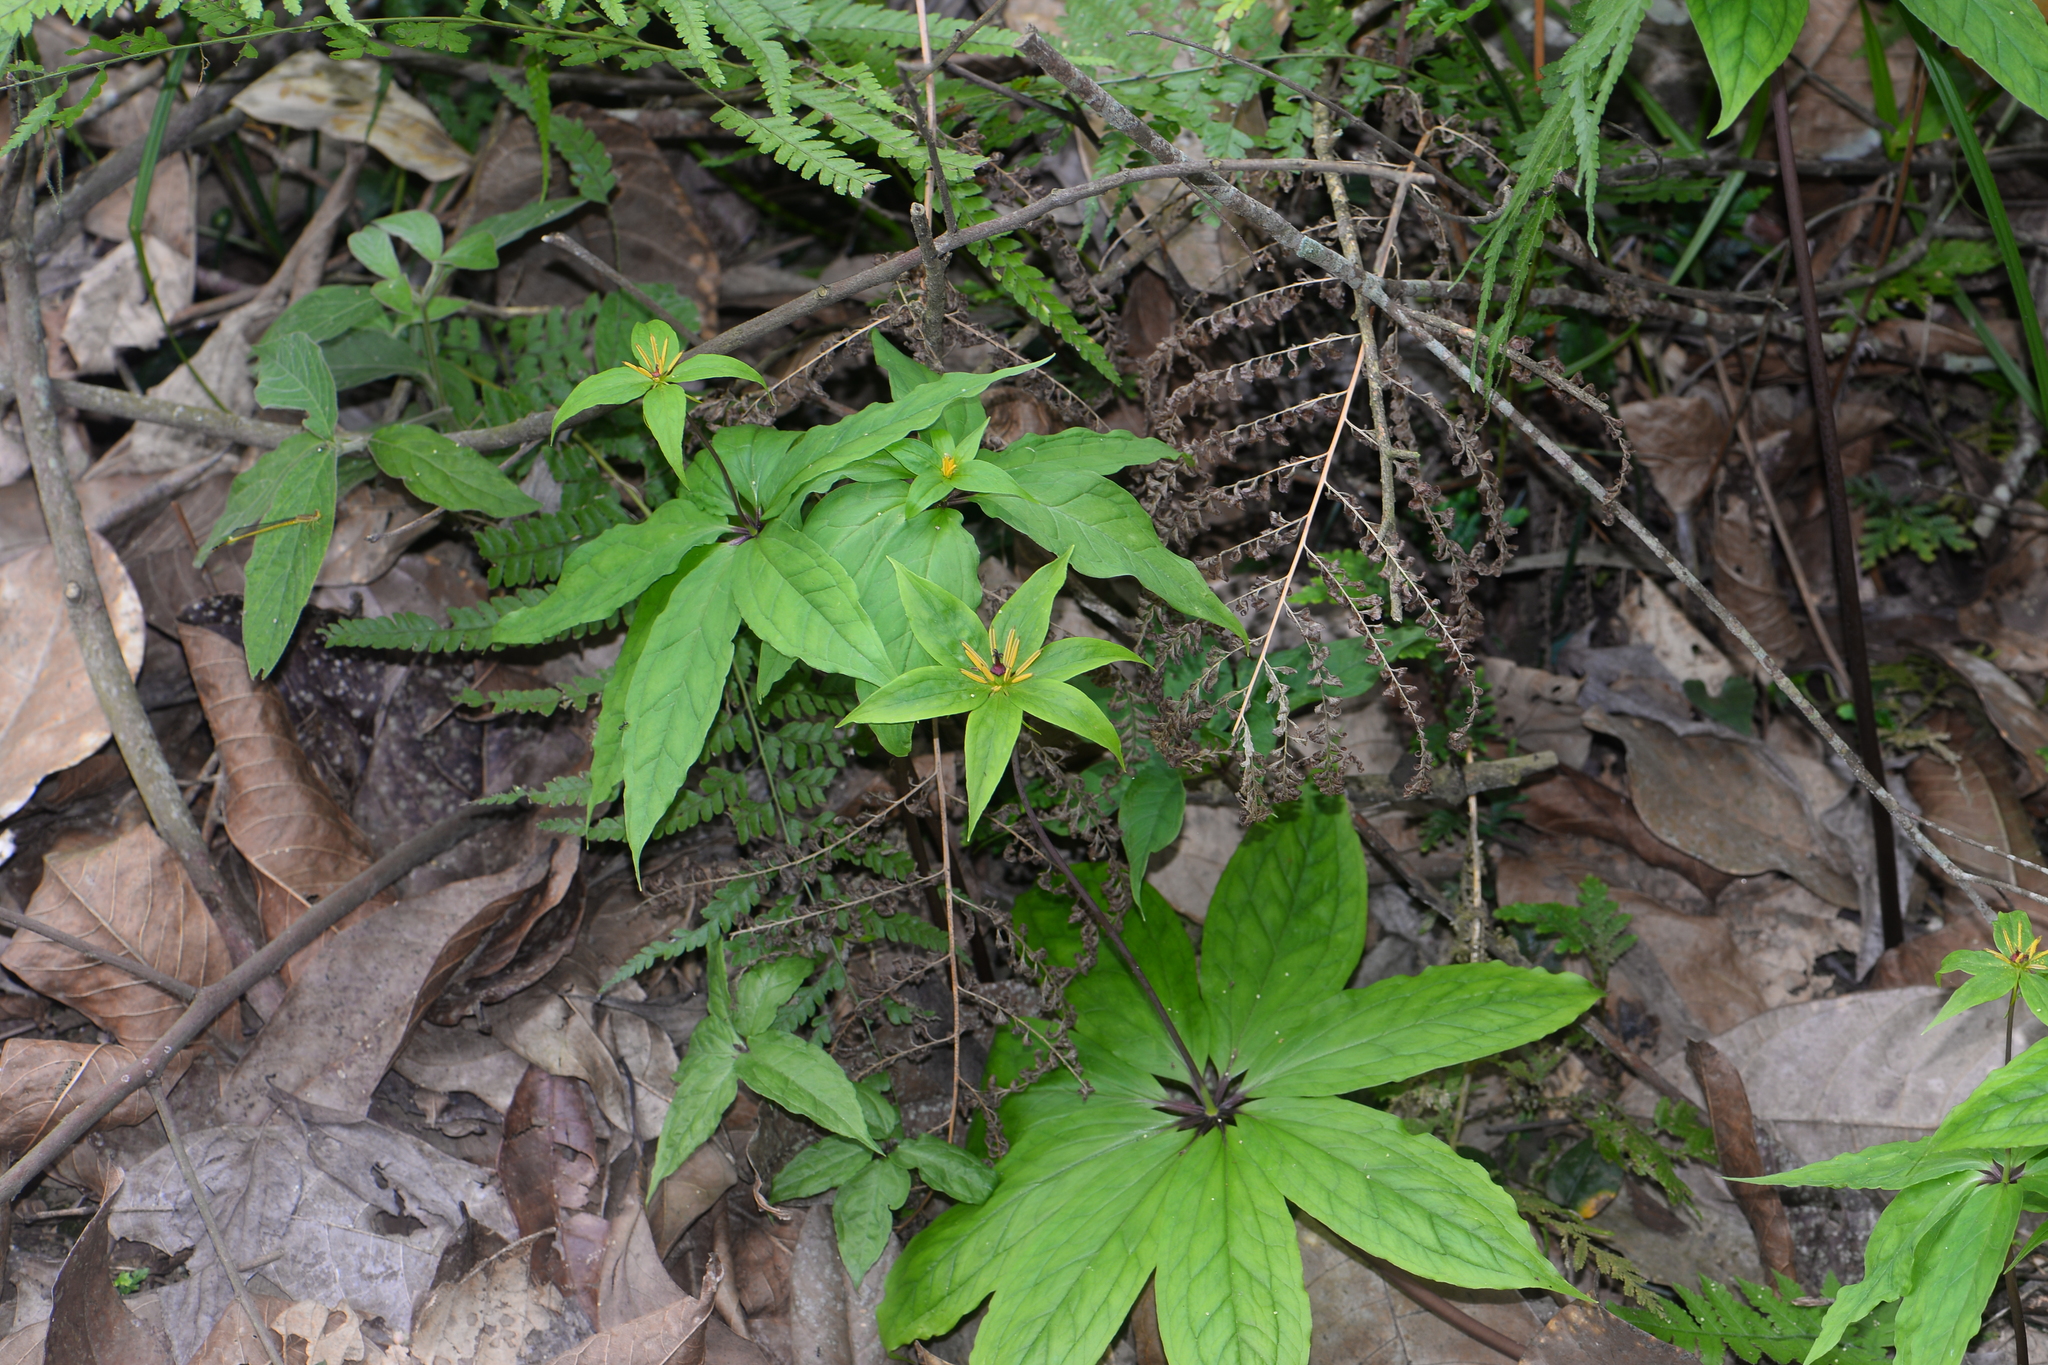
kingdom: Plantae
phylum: Tracheophyta
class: Liliopsida
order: Liliales
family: Melanthiaceae
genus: Paris
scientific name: Paris polyphylla
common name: Love apple
